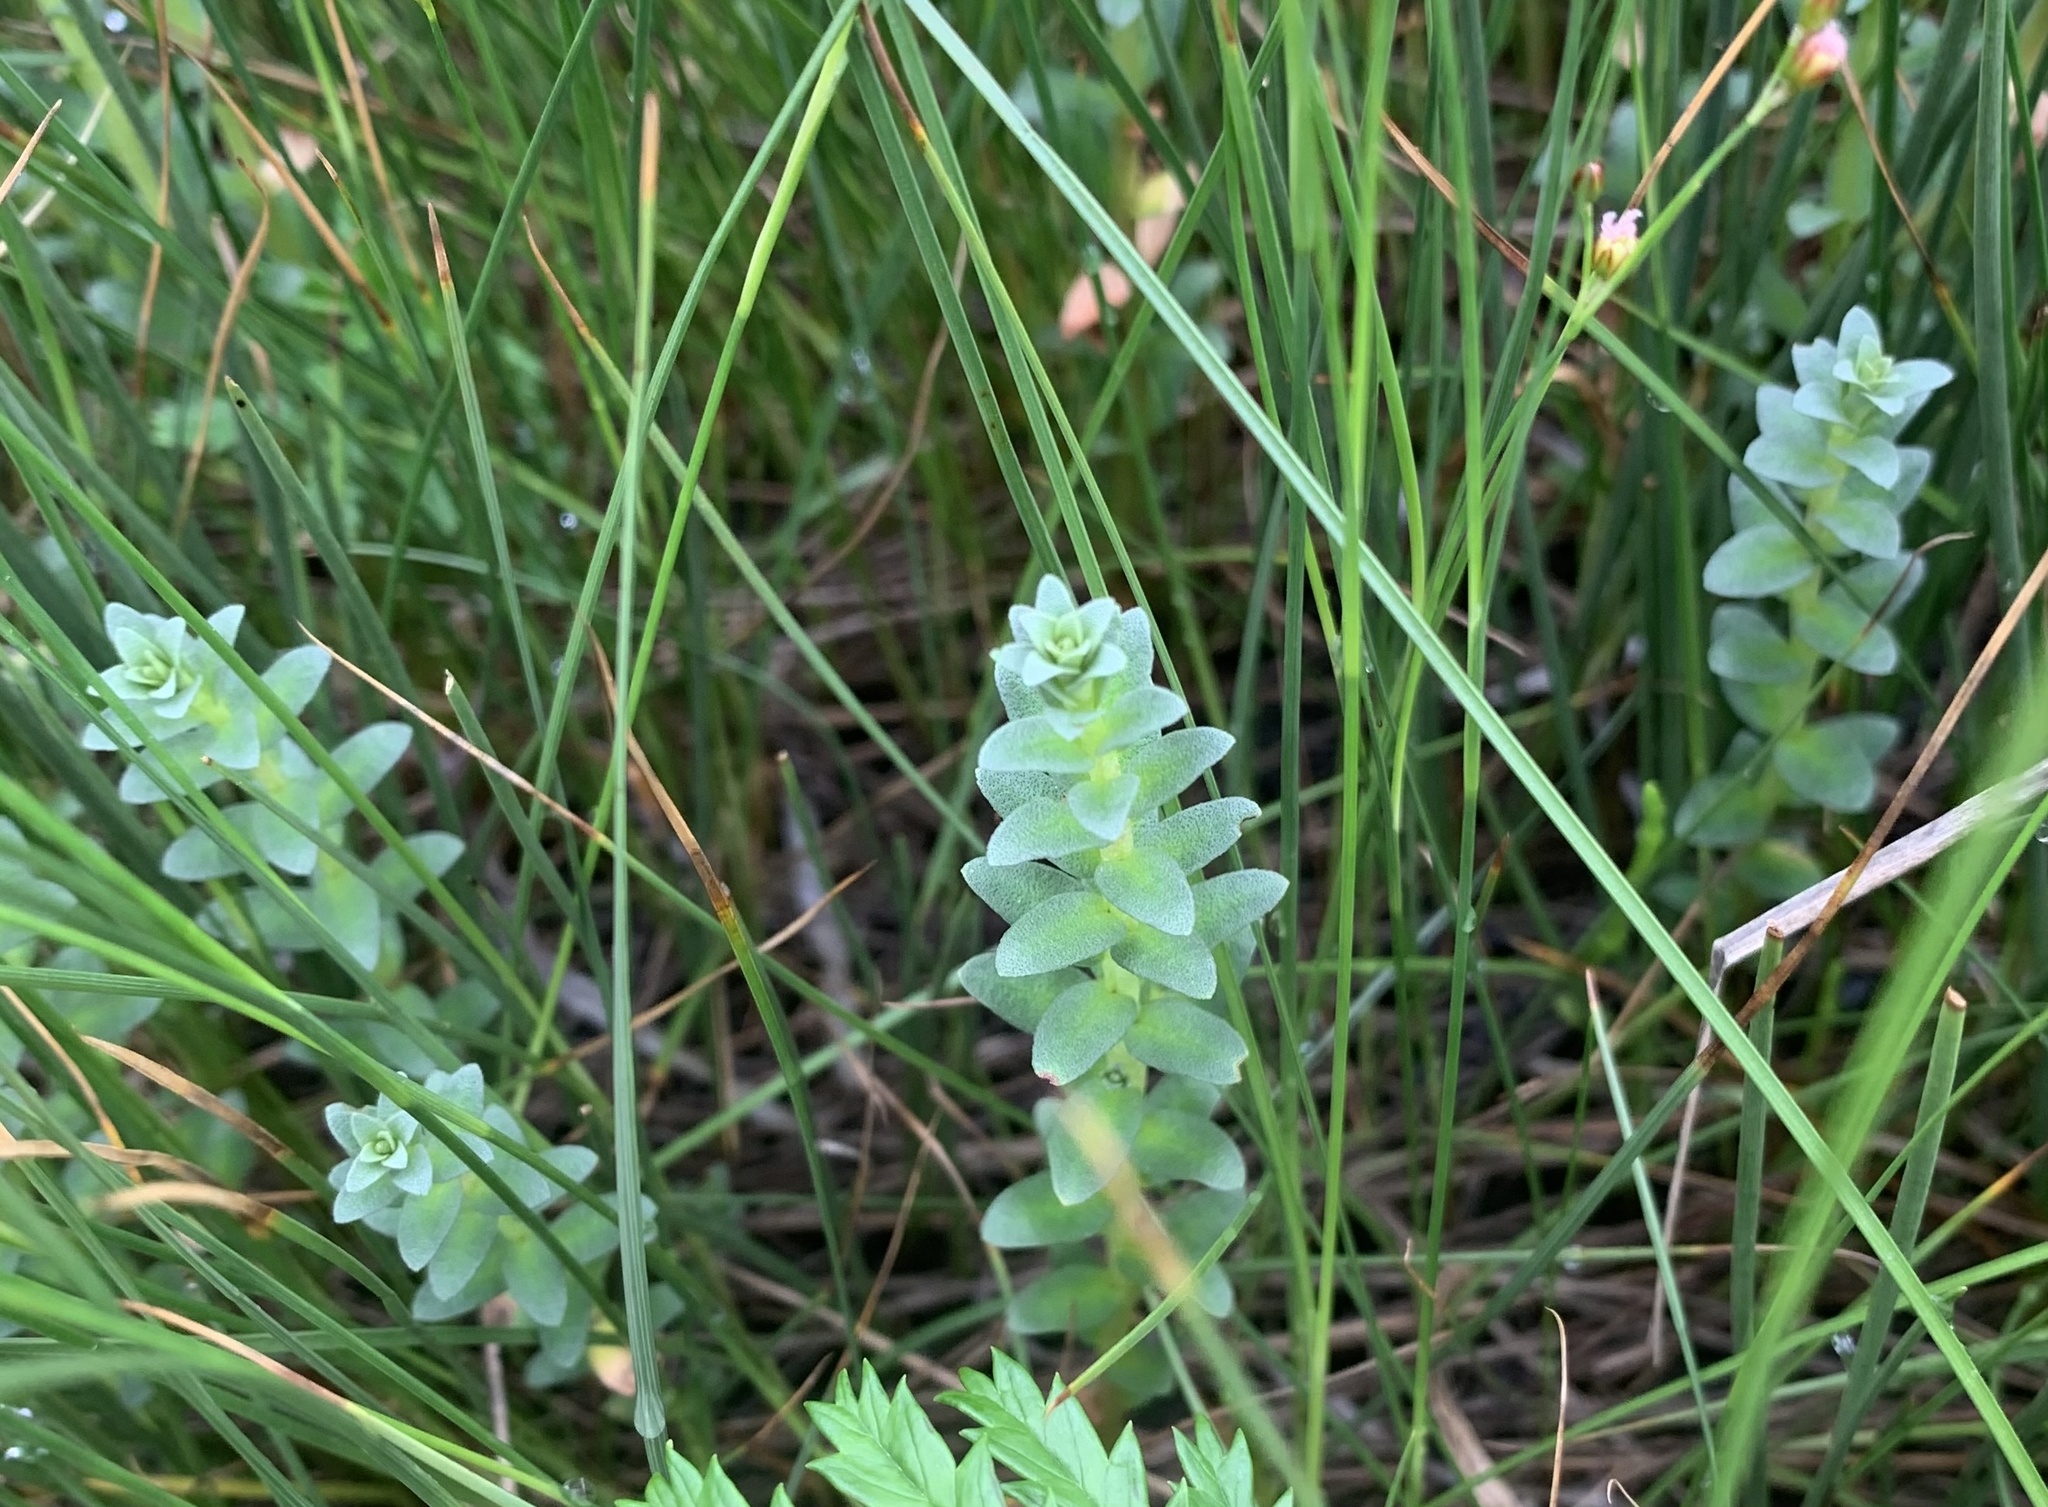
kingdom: Plantae
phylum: Tracheophyta
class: Magnoliopsida
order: Ericales
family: Primulaceae
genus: Lysimachia
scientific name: Lysimachia maritima
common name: Sea milkwort
